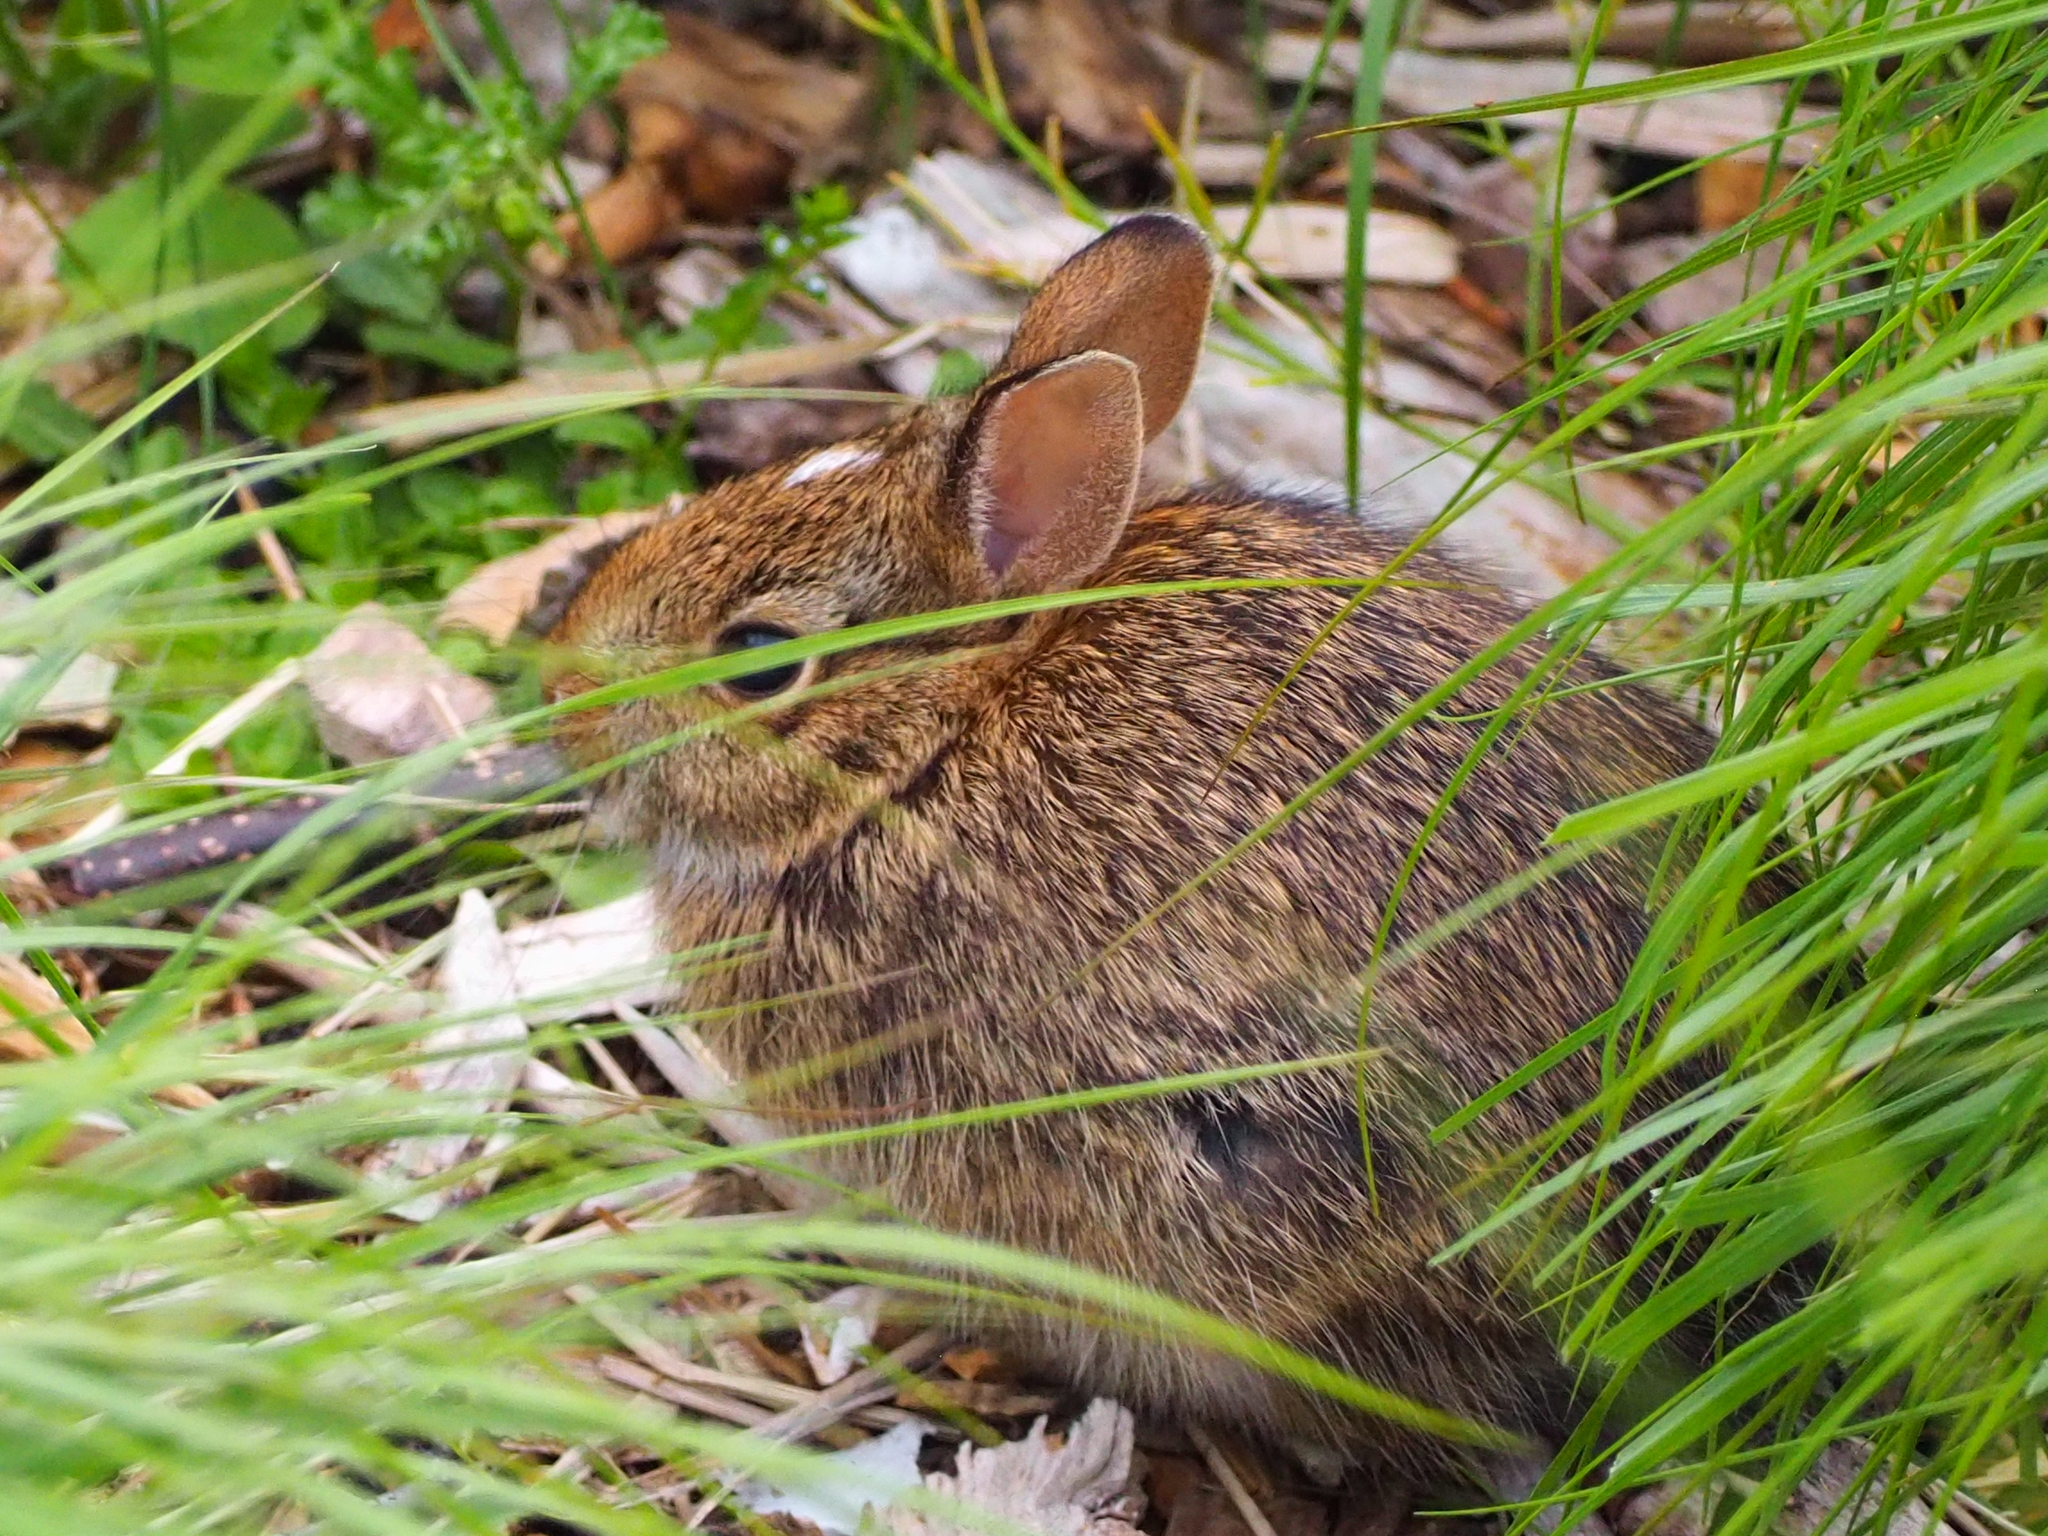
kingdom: Animalia
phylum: Chordata
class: Mammalia
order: Lagomorpha
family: Leporidae
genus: Sylvilagus
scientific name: Sylvilagus floridanus
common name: Eastern cottontail
